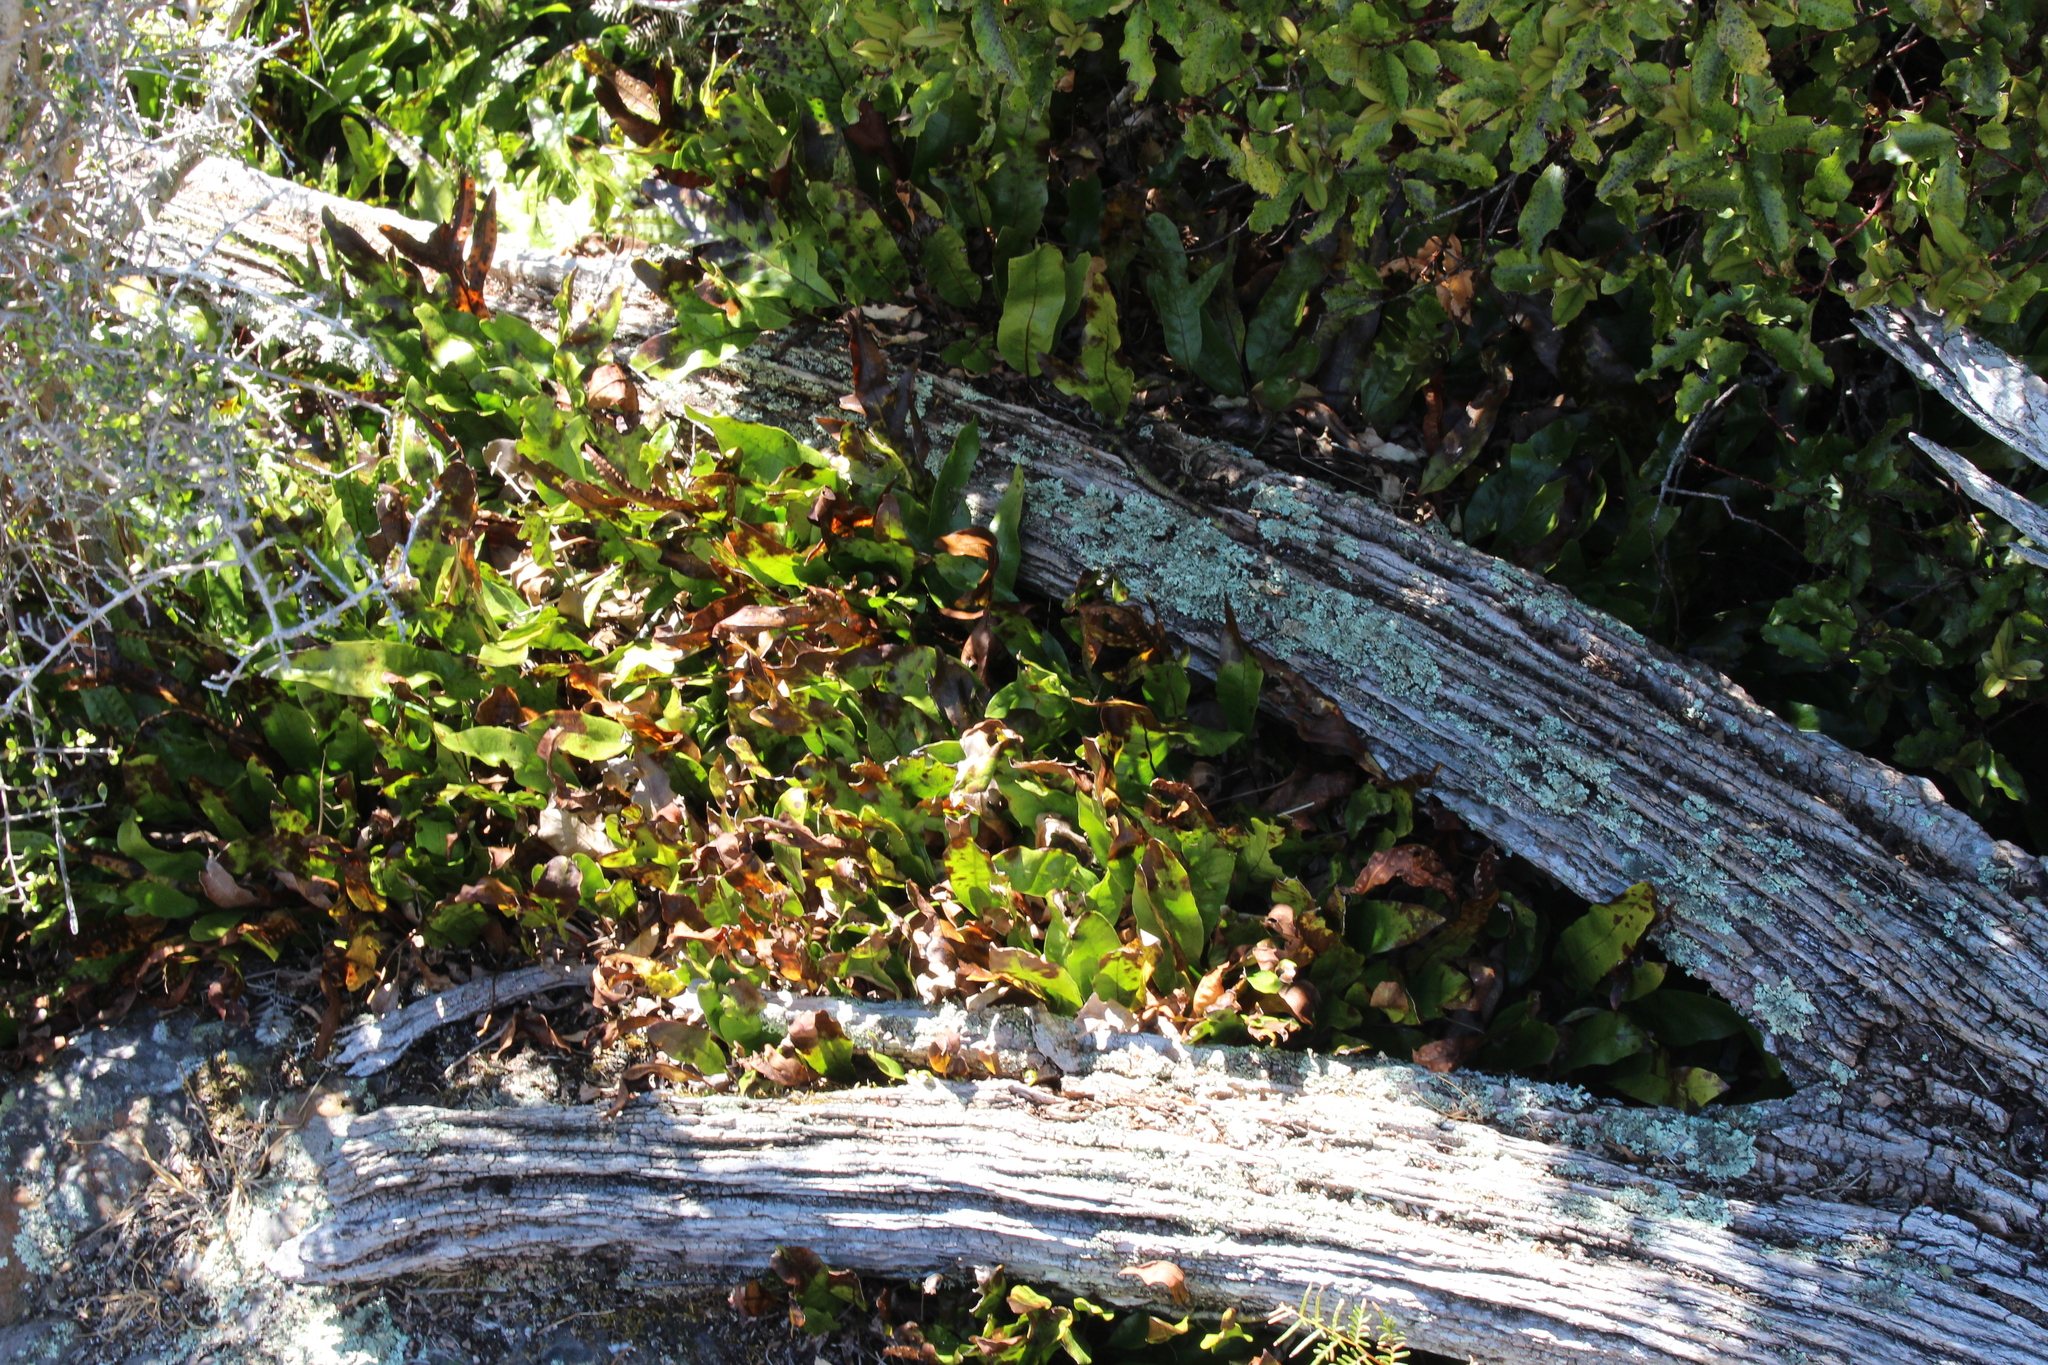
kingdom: Plantae
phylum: Tracheophyta
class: Polypodiopsida
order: Polypodiales
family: Polypodiaceae
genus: Lecanopteris
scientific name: Lecanopteris pustulata
